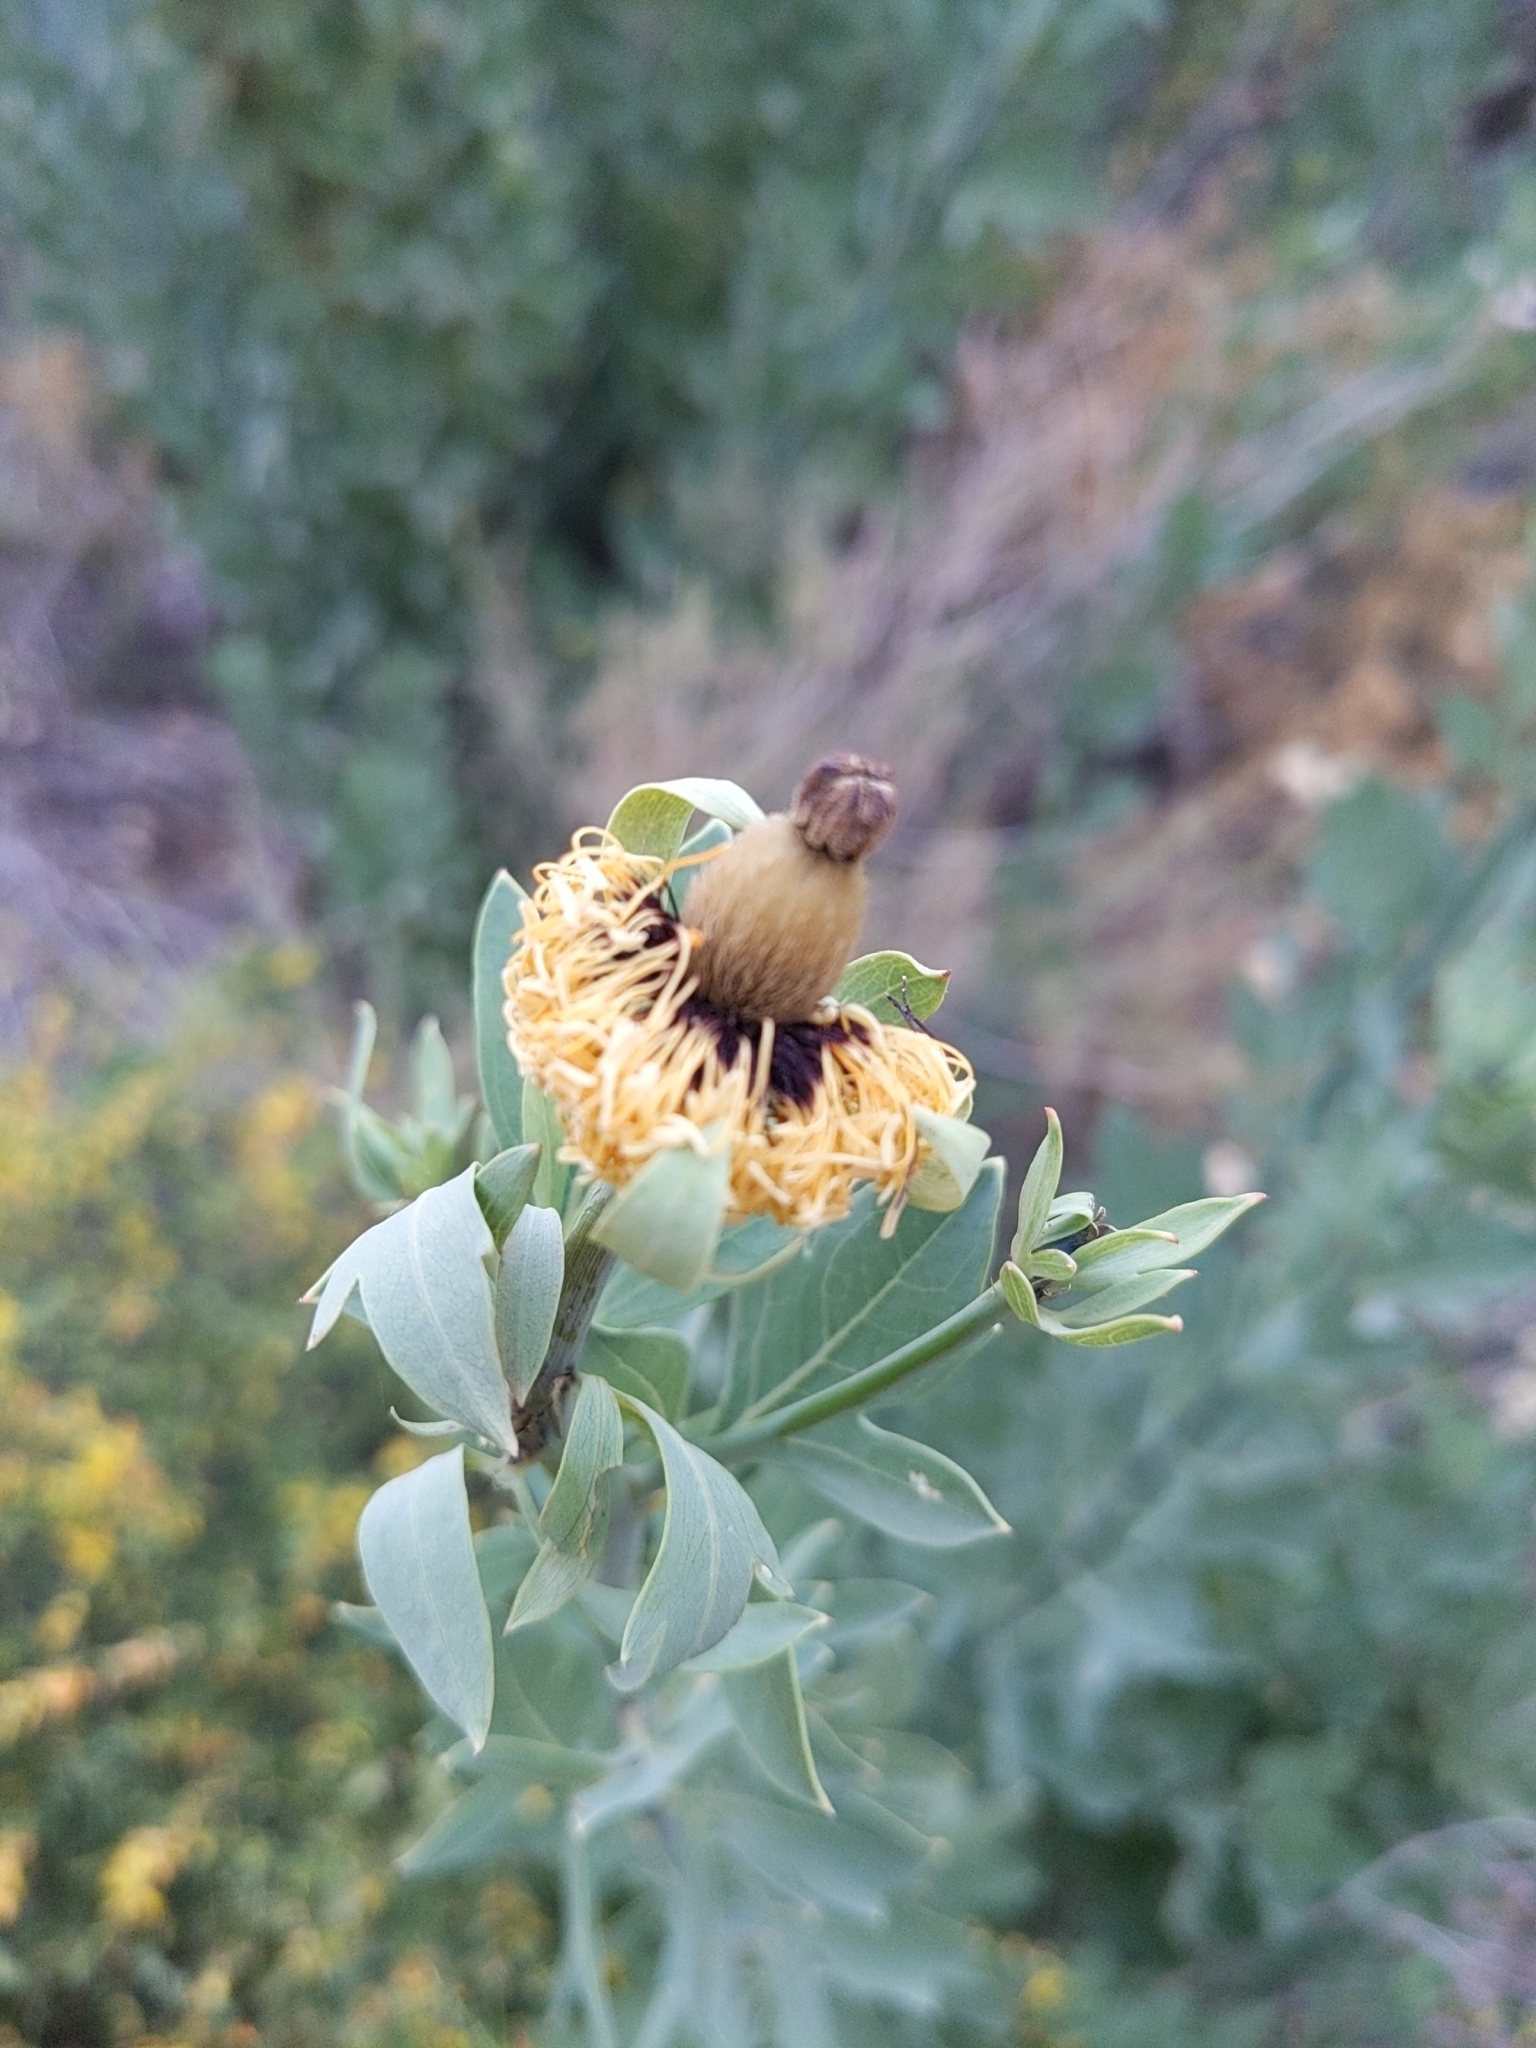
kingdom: Plantae
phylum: Tracheophyta
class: Magnoliopsida
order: Ranunculales
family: Papaveraceae
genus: Romneya
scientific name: Romneya coulteri
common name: California tree-poppy
